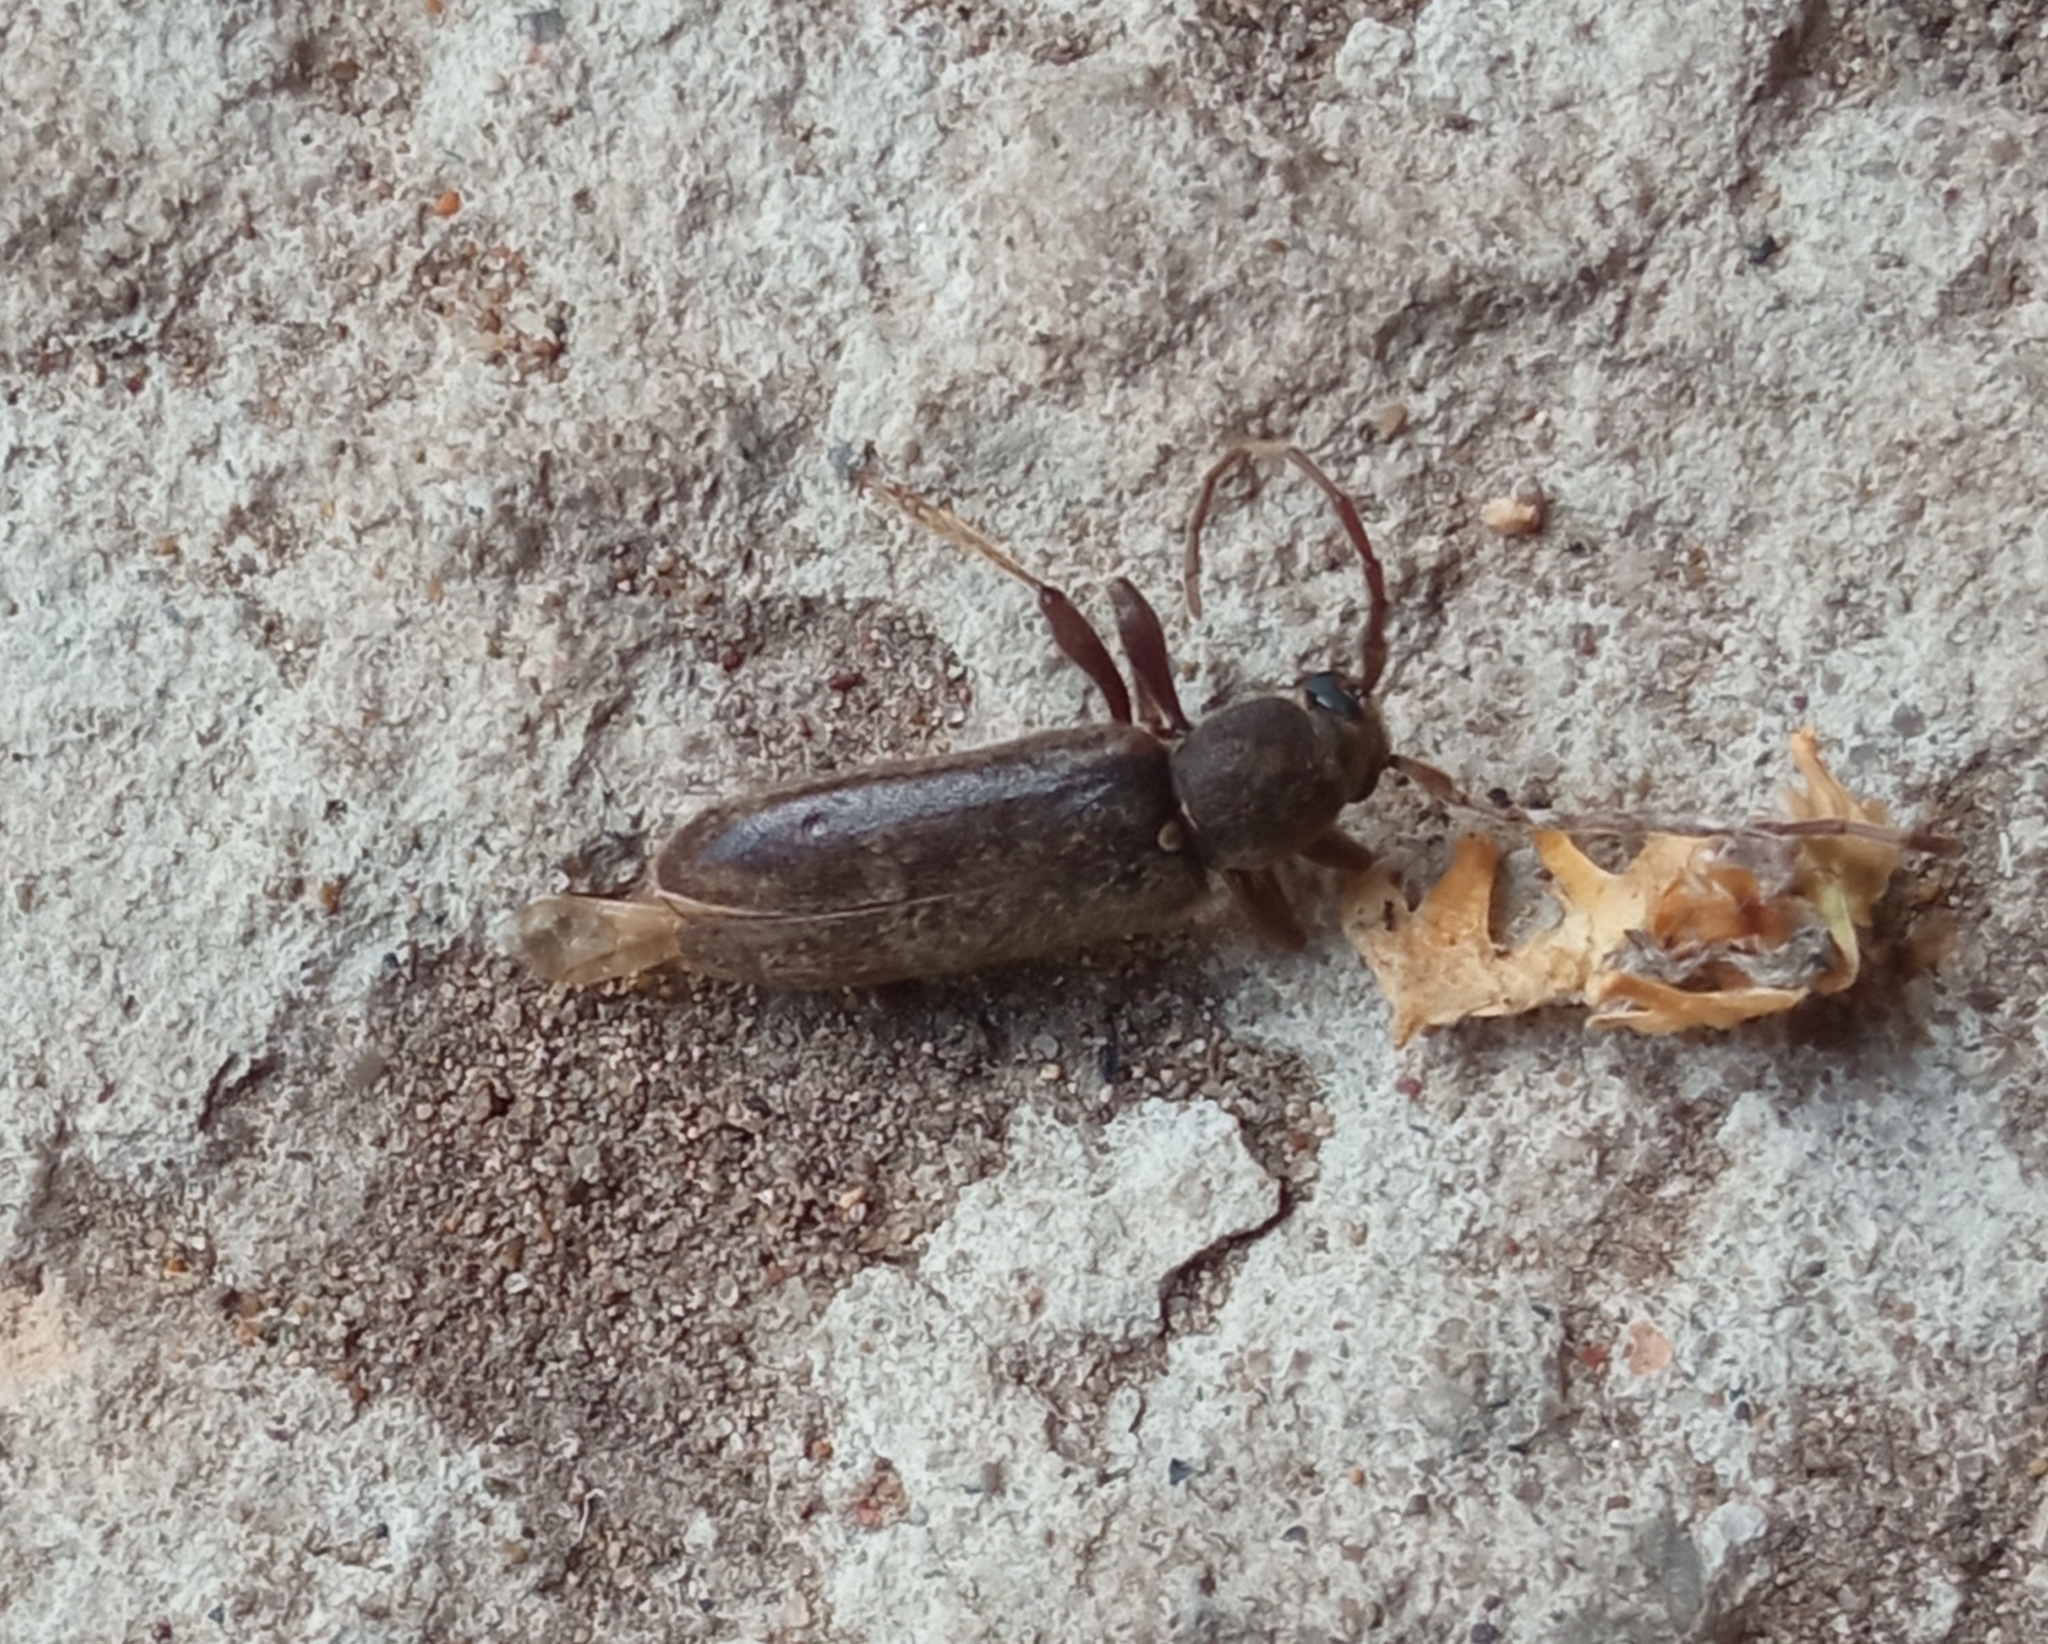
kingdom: Animalia
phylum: Arthropoda
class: Insecta
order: Coleoptera
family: Cerambycidae
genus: Trichoferus
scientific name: Trichoferus campestris
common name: Velvet long horned beetle
